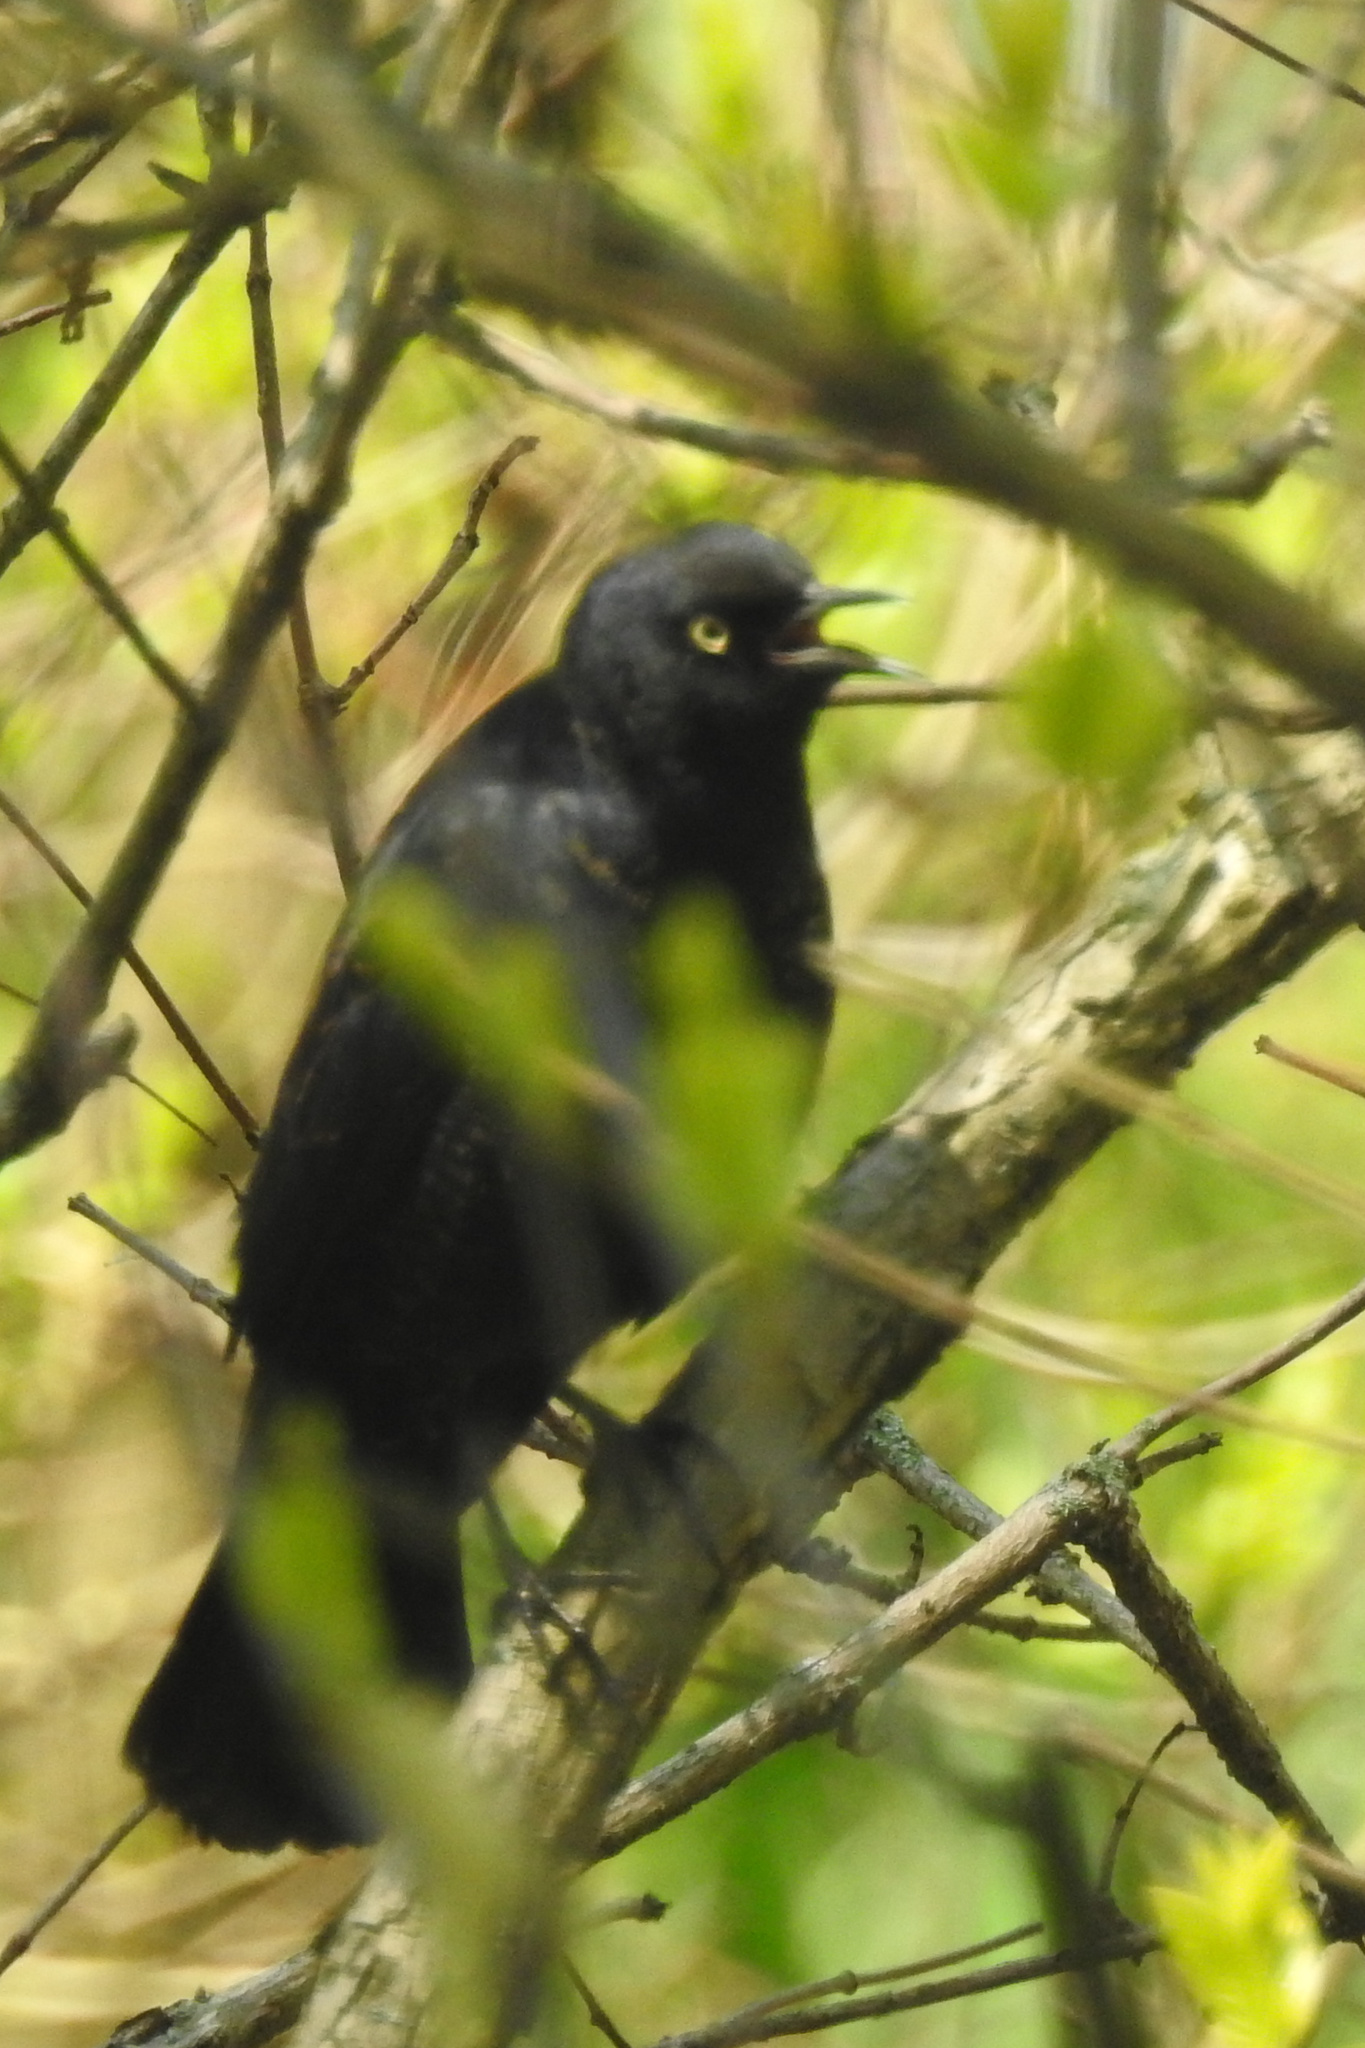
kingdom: Animalia
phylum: Chordata
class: Aves
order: Passeriformes
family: Icteridae
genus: Euphagus
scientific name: Euphagus carolinus
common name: Rusty blackbird
